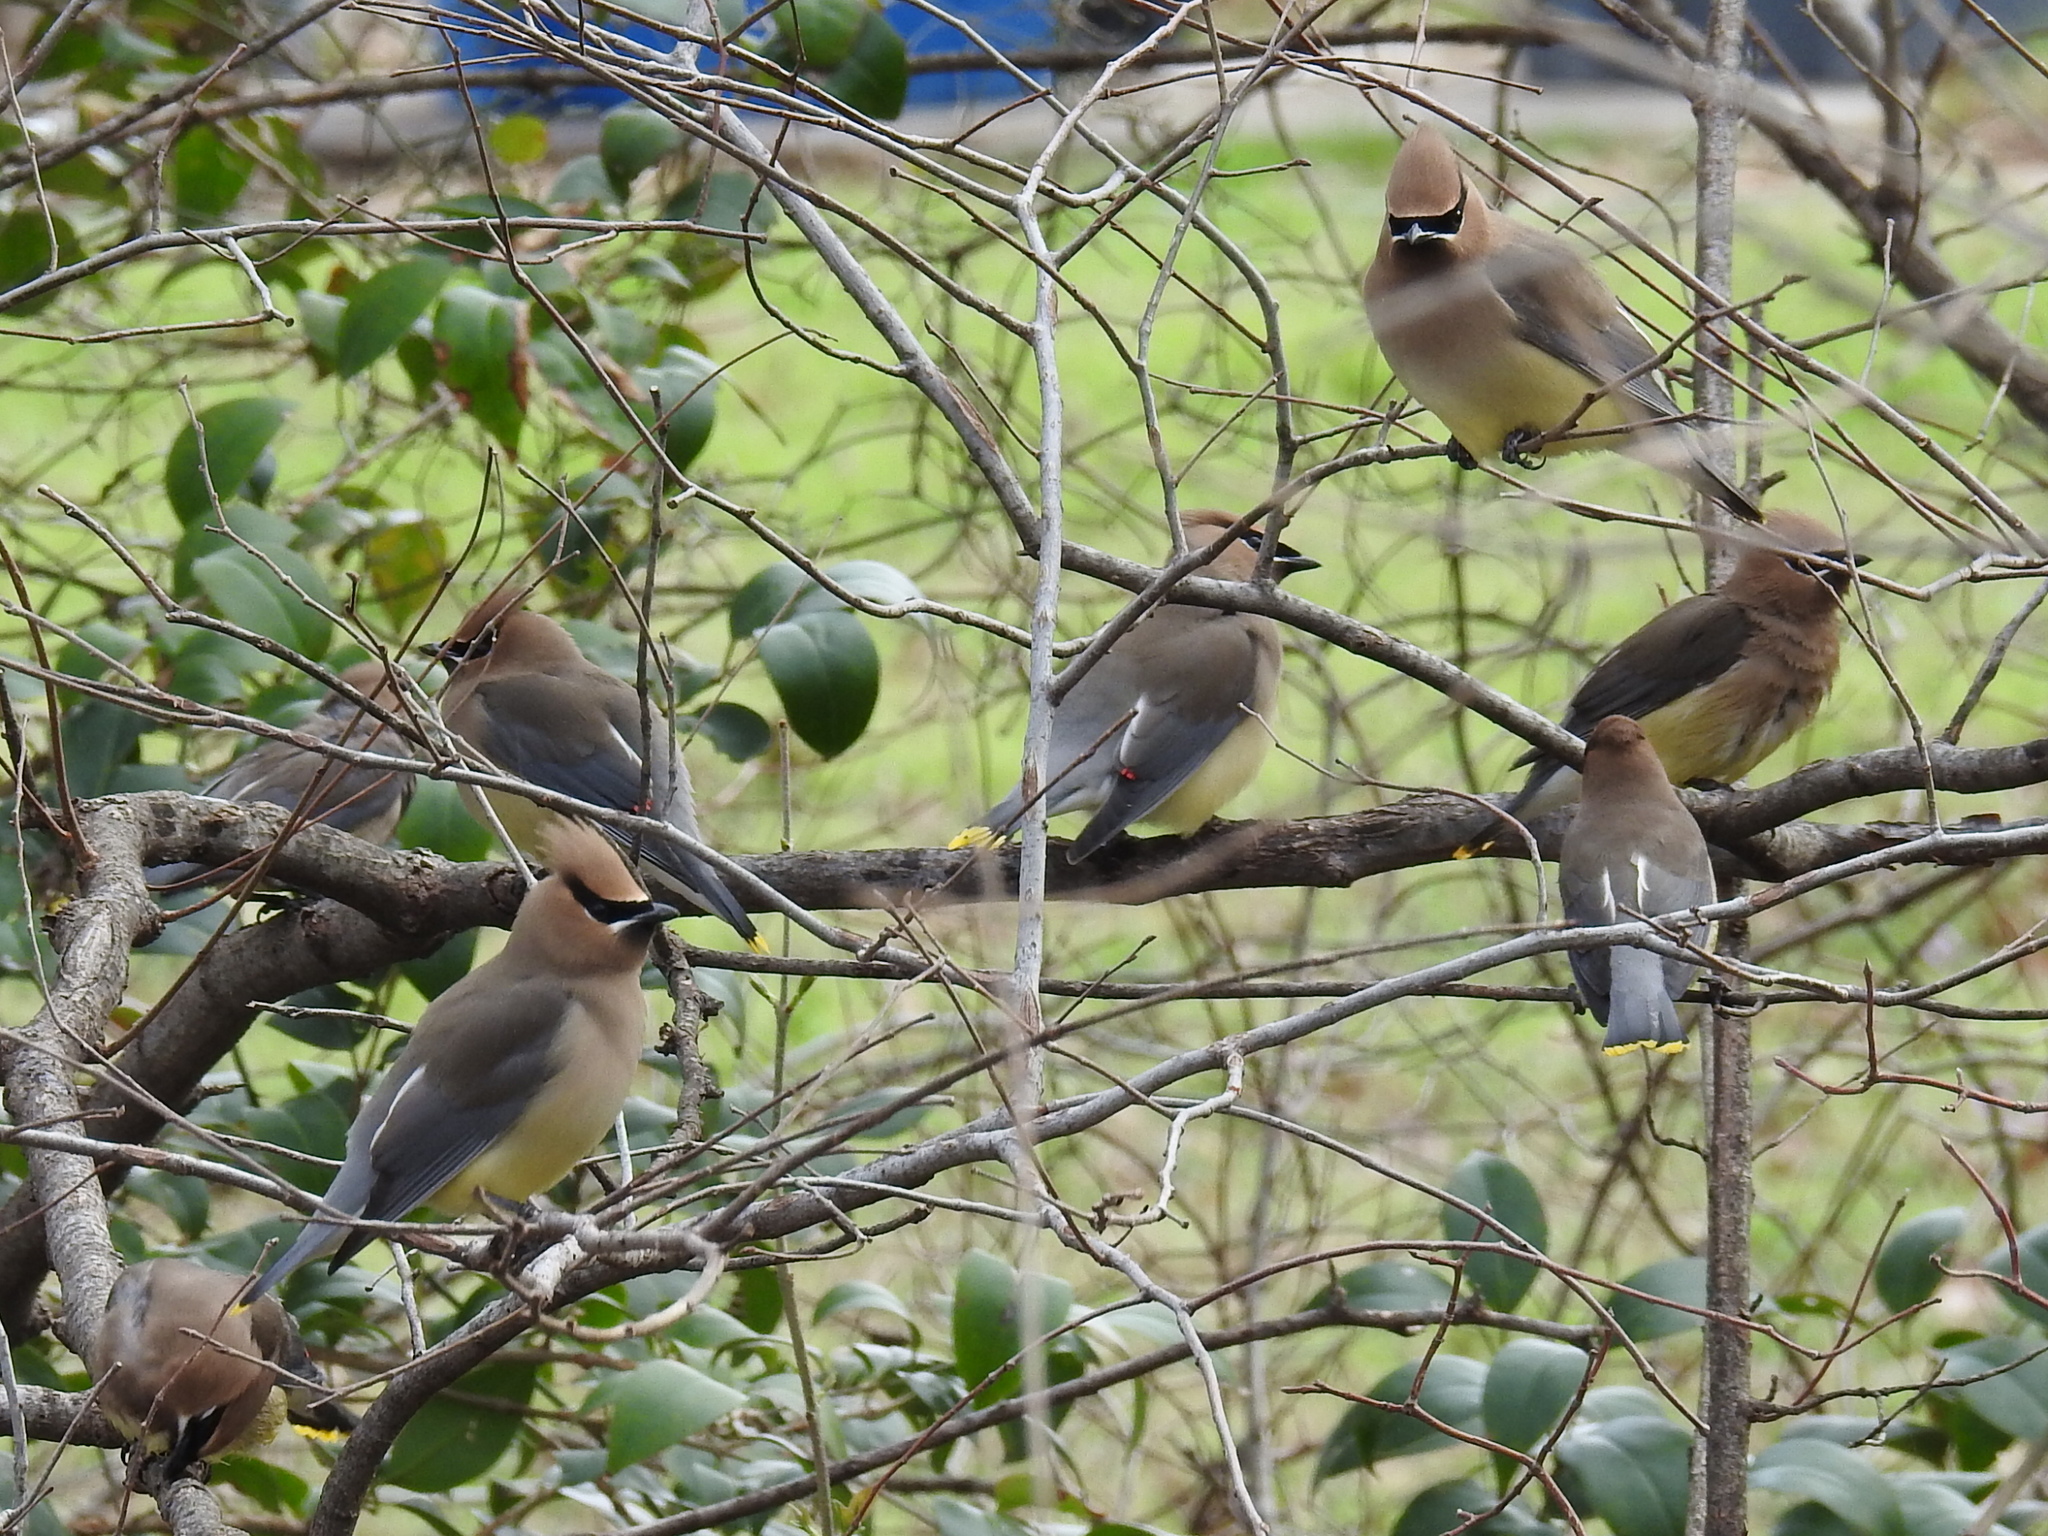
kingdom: Animalia
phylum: Chordata
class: Aves
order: Passeriformes
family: Bombycillidae
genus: Bombycilla
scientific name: Bombycilla cedrorum
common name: Cedar waxwing
